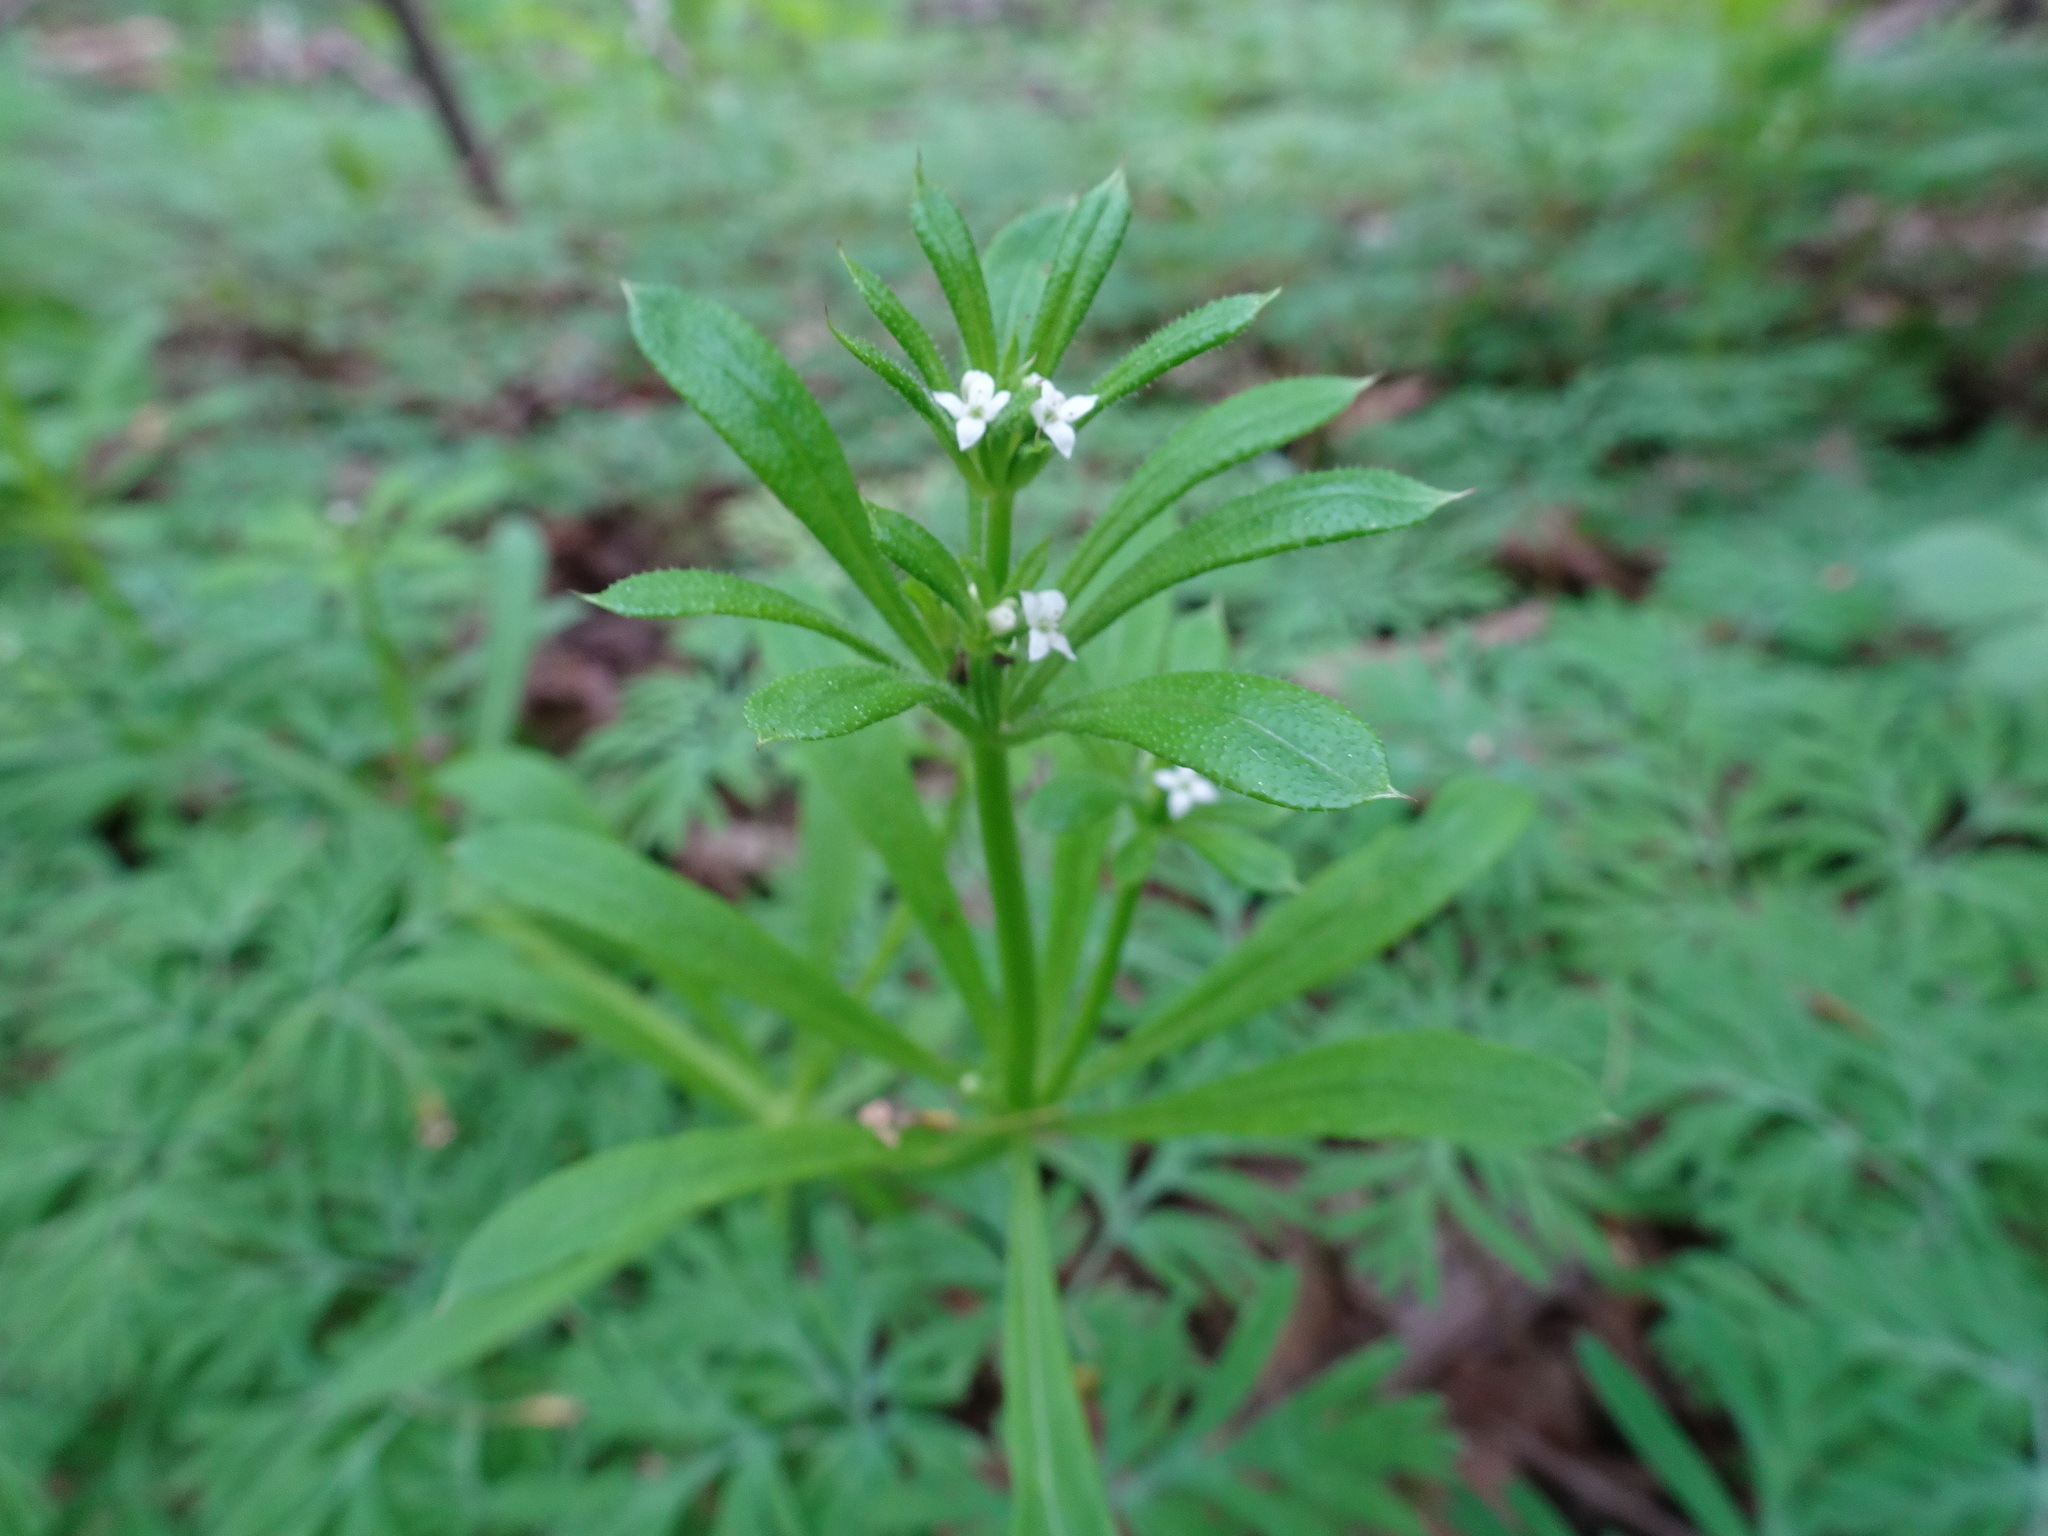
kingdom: Plantae
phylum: Tracheophyta
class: Magnoliopsida
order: Gentianales
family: Rubiaceae
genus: Galium
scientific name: Galium aparine
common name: Cleavers
